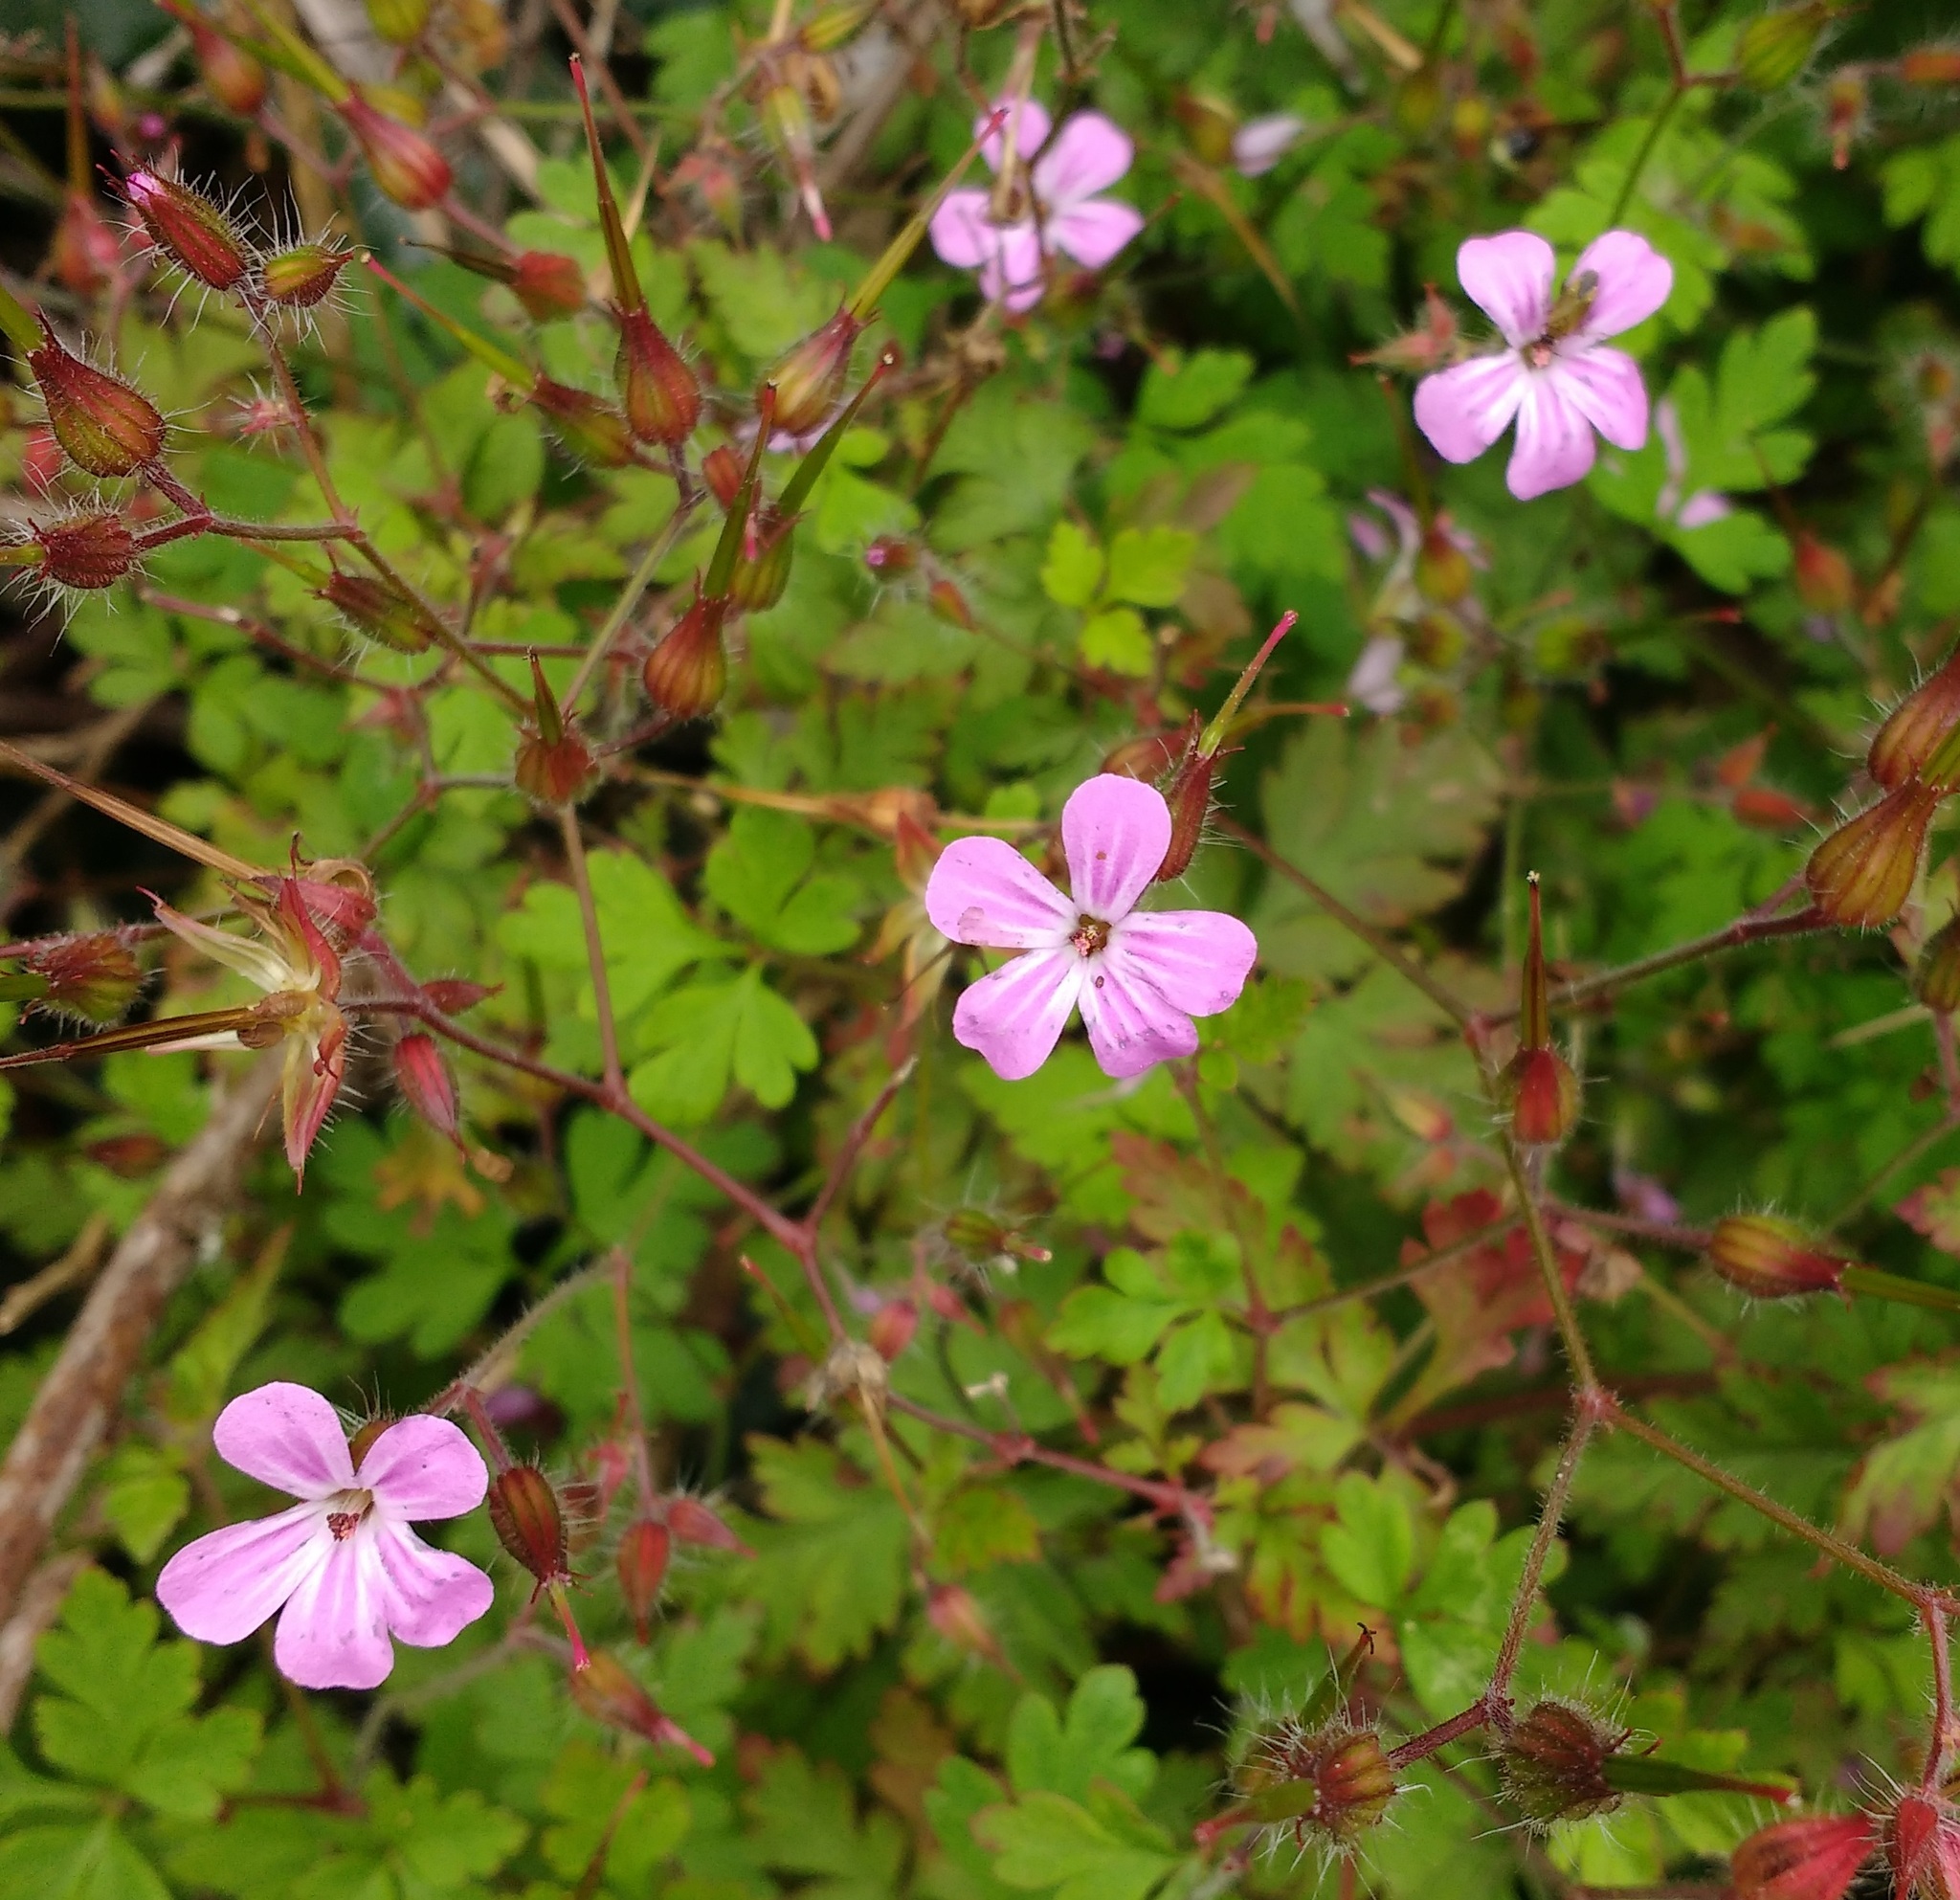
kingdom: Plantae
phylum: Tracheophyta
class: Magnoliopsida
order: Geraniales
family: Geraniaceae
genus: Geranium
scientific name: Geranium robertianum
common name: Herb-robert
